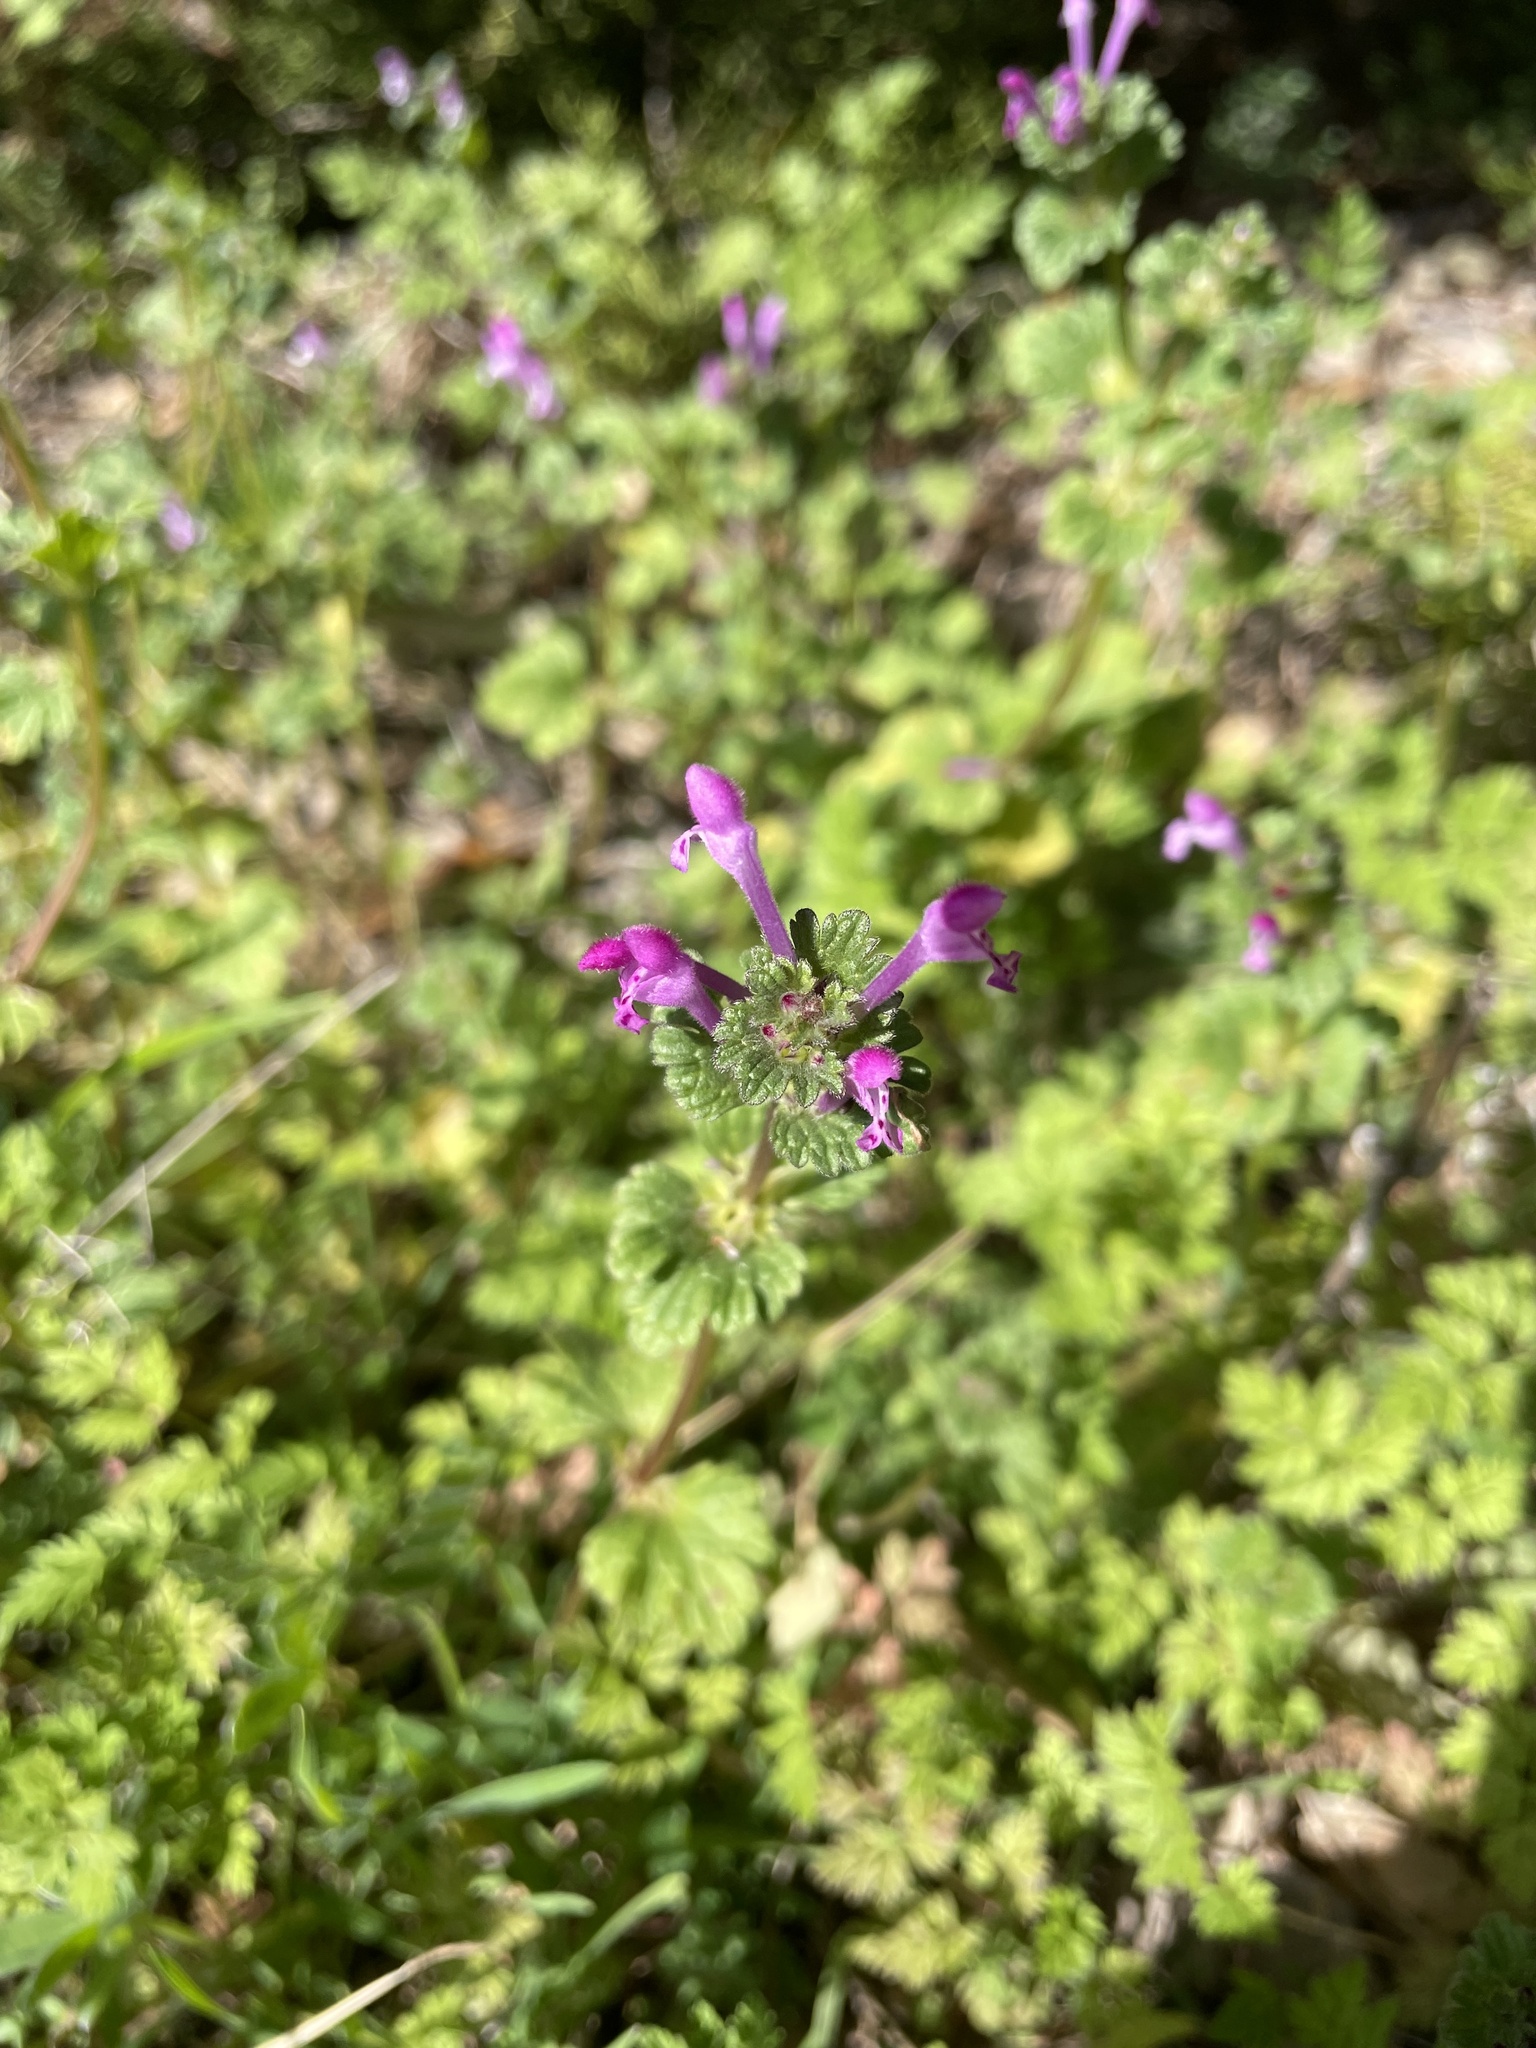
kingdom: Plantae
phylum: Tracheophyta
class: Magnoliopsida
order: Lamiales
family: Lamiaceae
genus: Lamium
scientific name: Lamium amplexicaule
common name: Henbit dead-nettle
